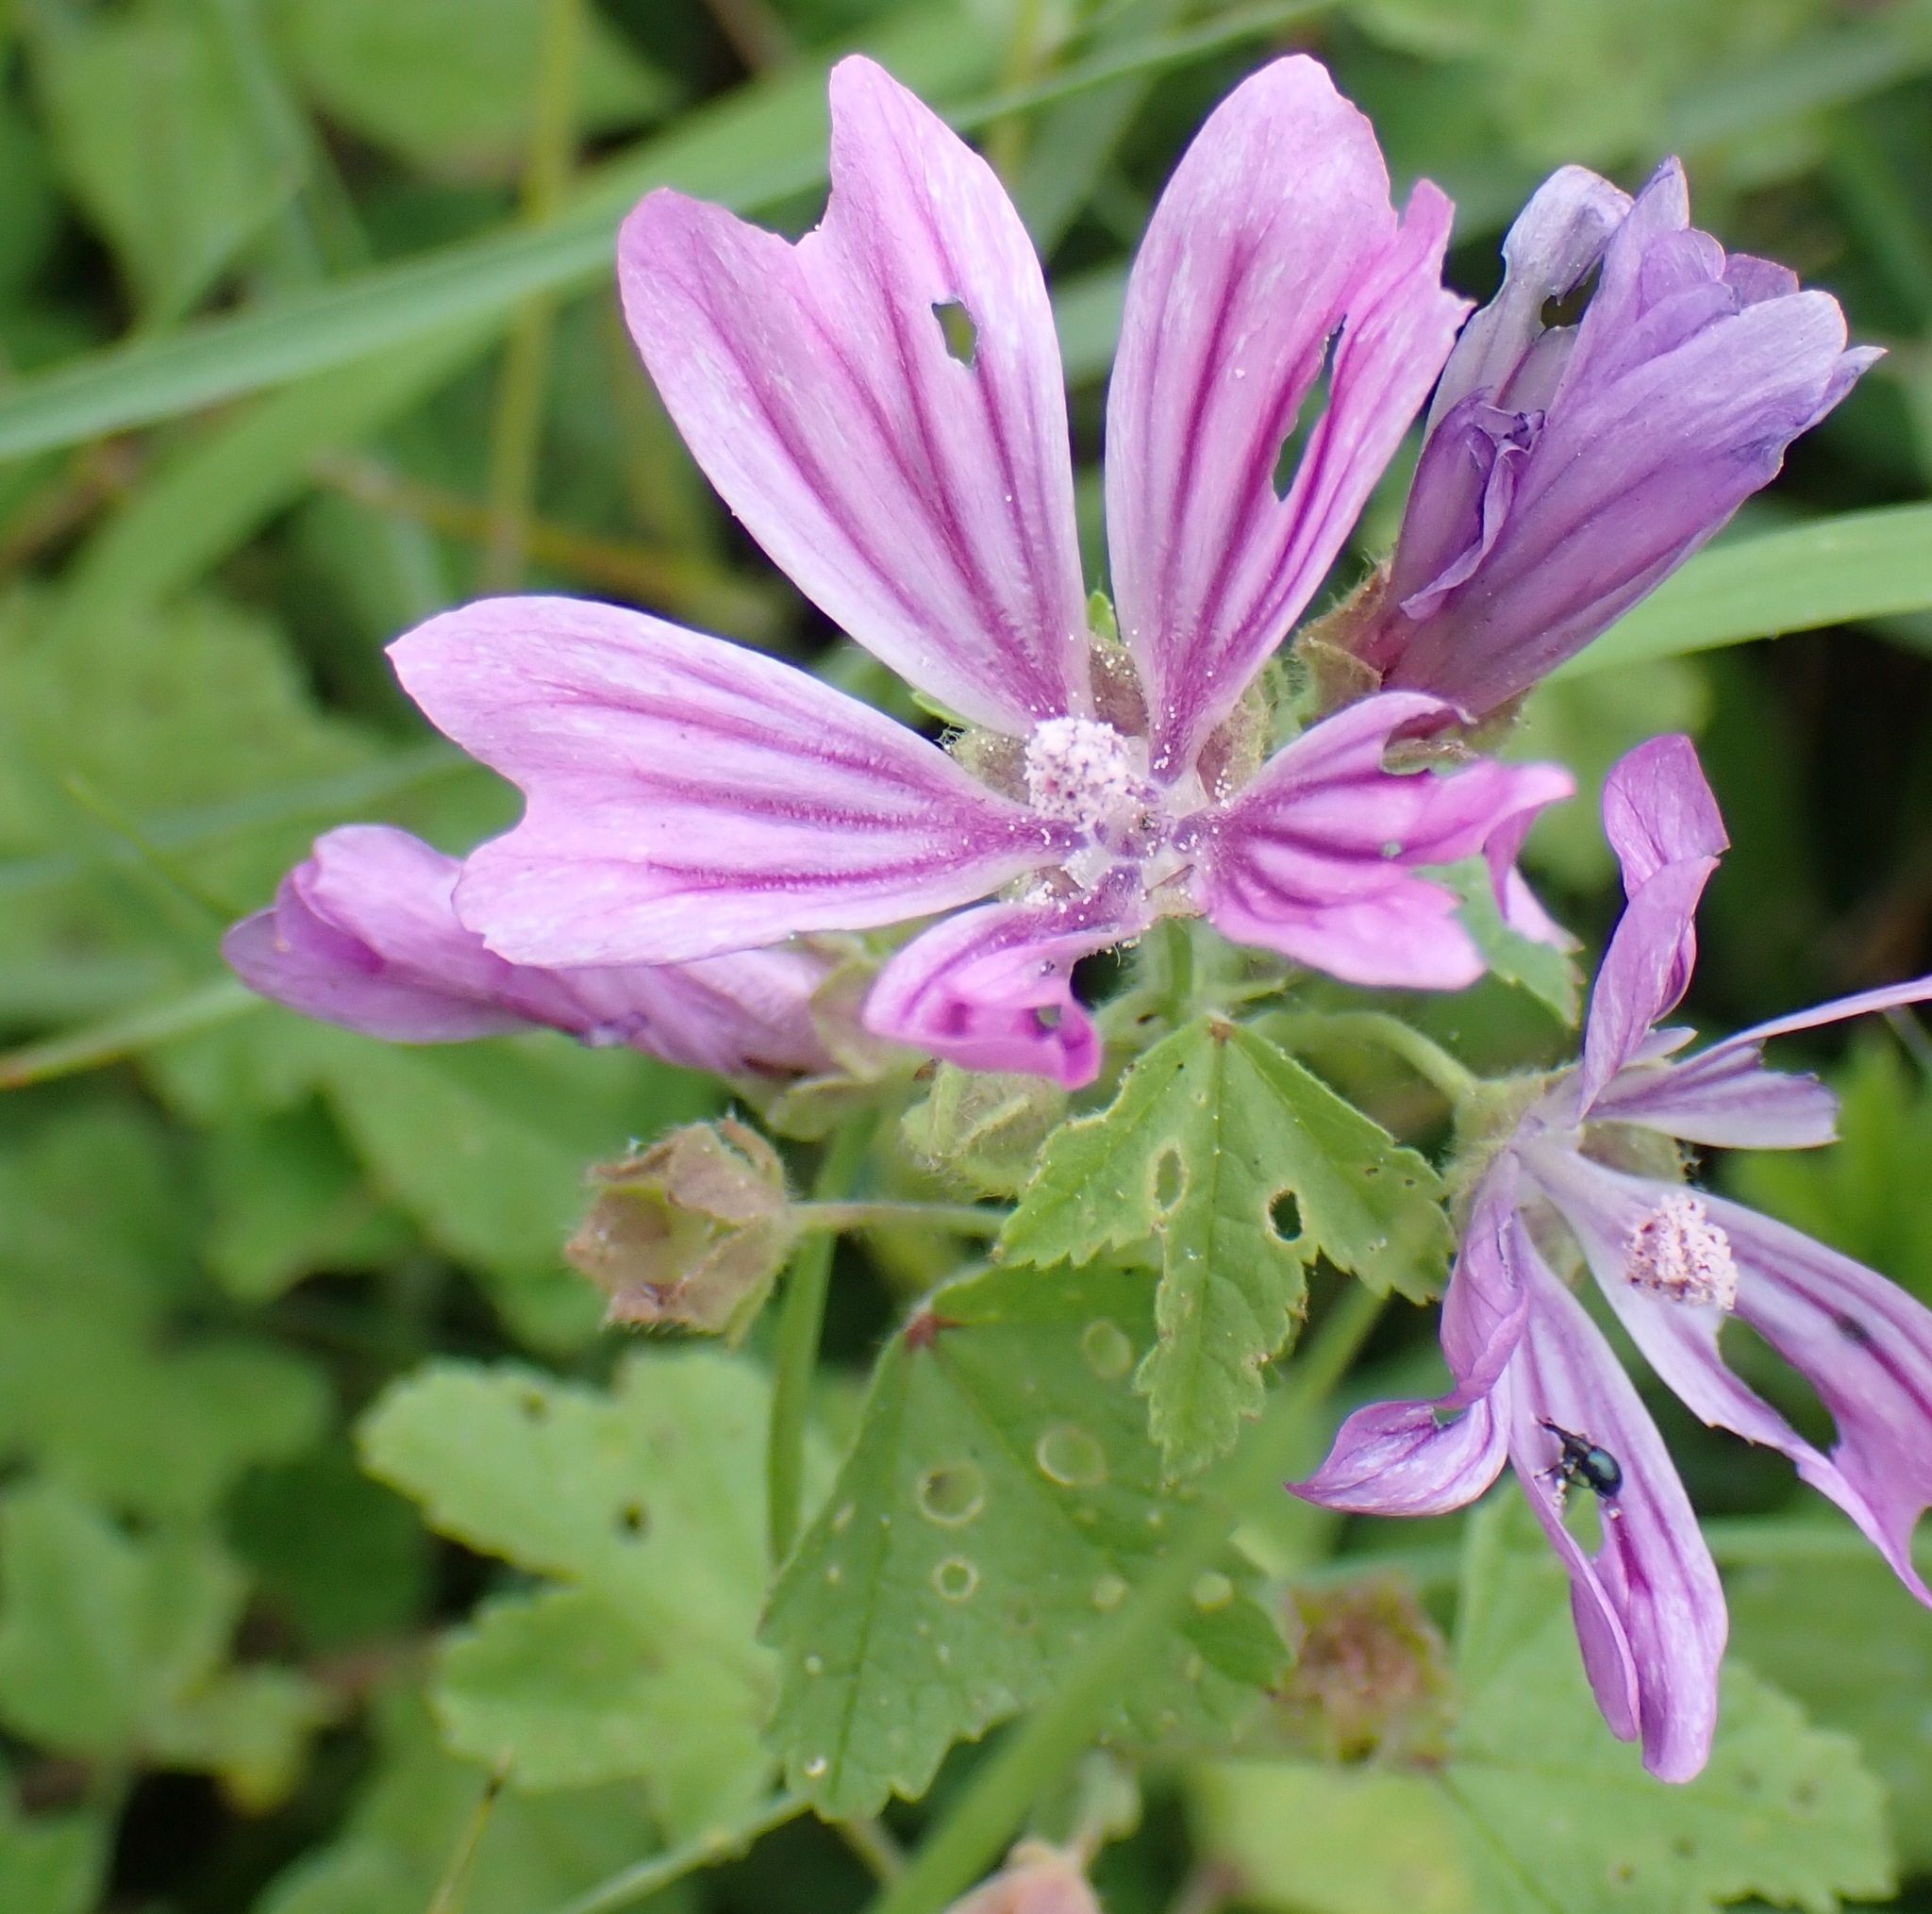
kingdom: Plantae
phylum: Tracheophyta
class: Magnoliopsida
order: Malvales
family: Malvaceae
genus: Malva
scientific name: Malva sylvestris
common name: Common mallow
